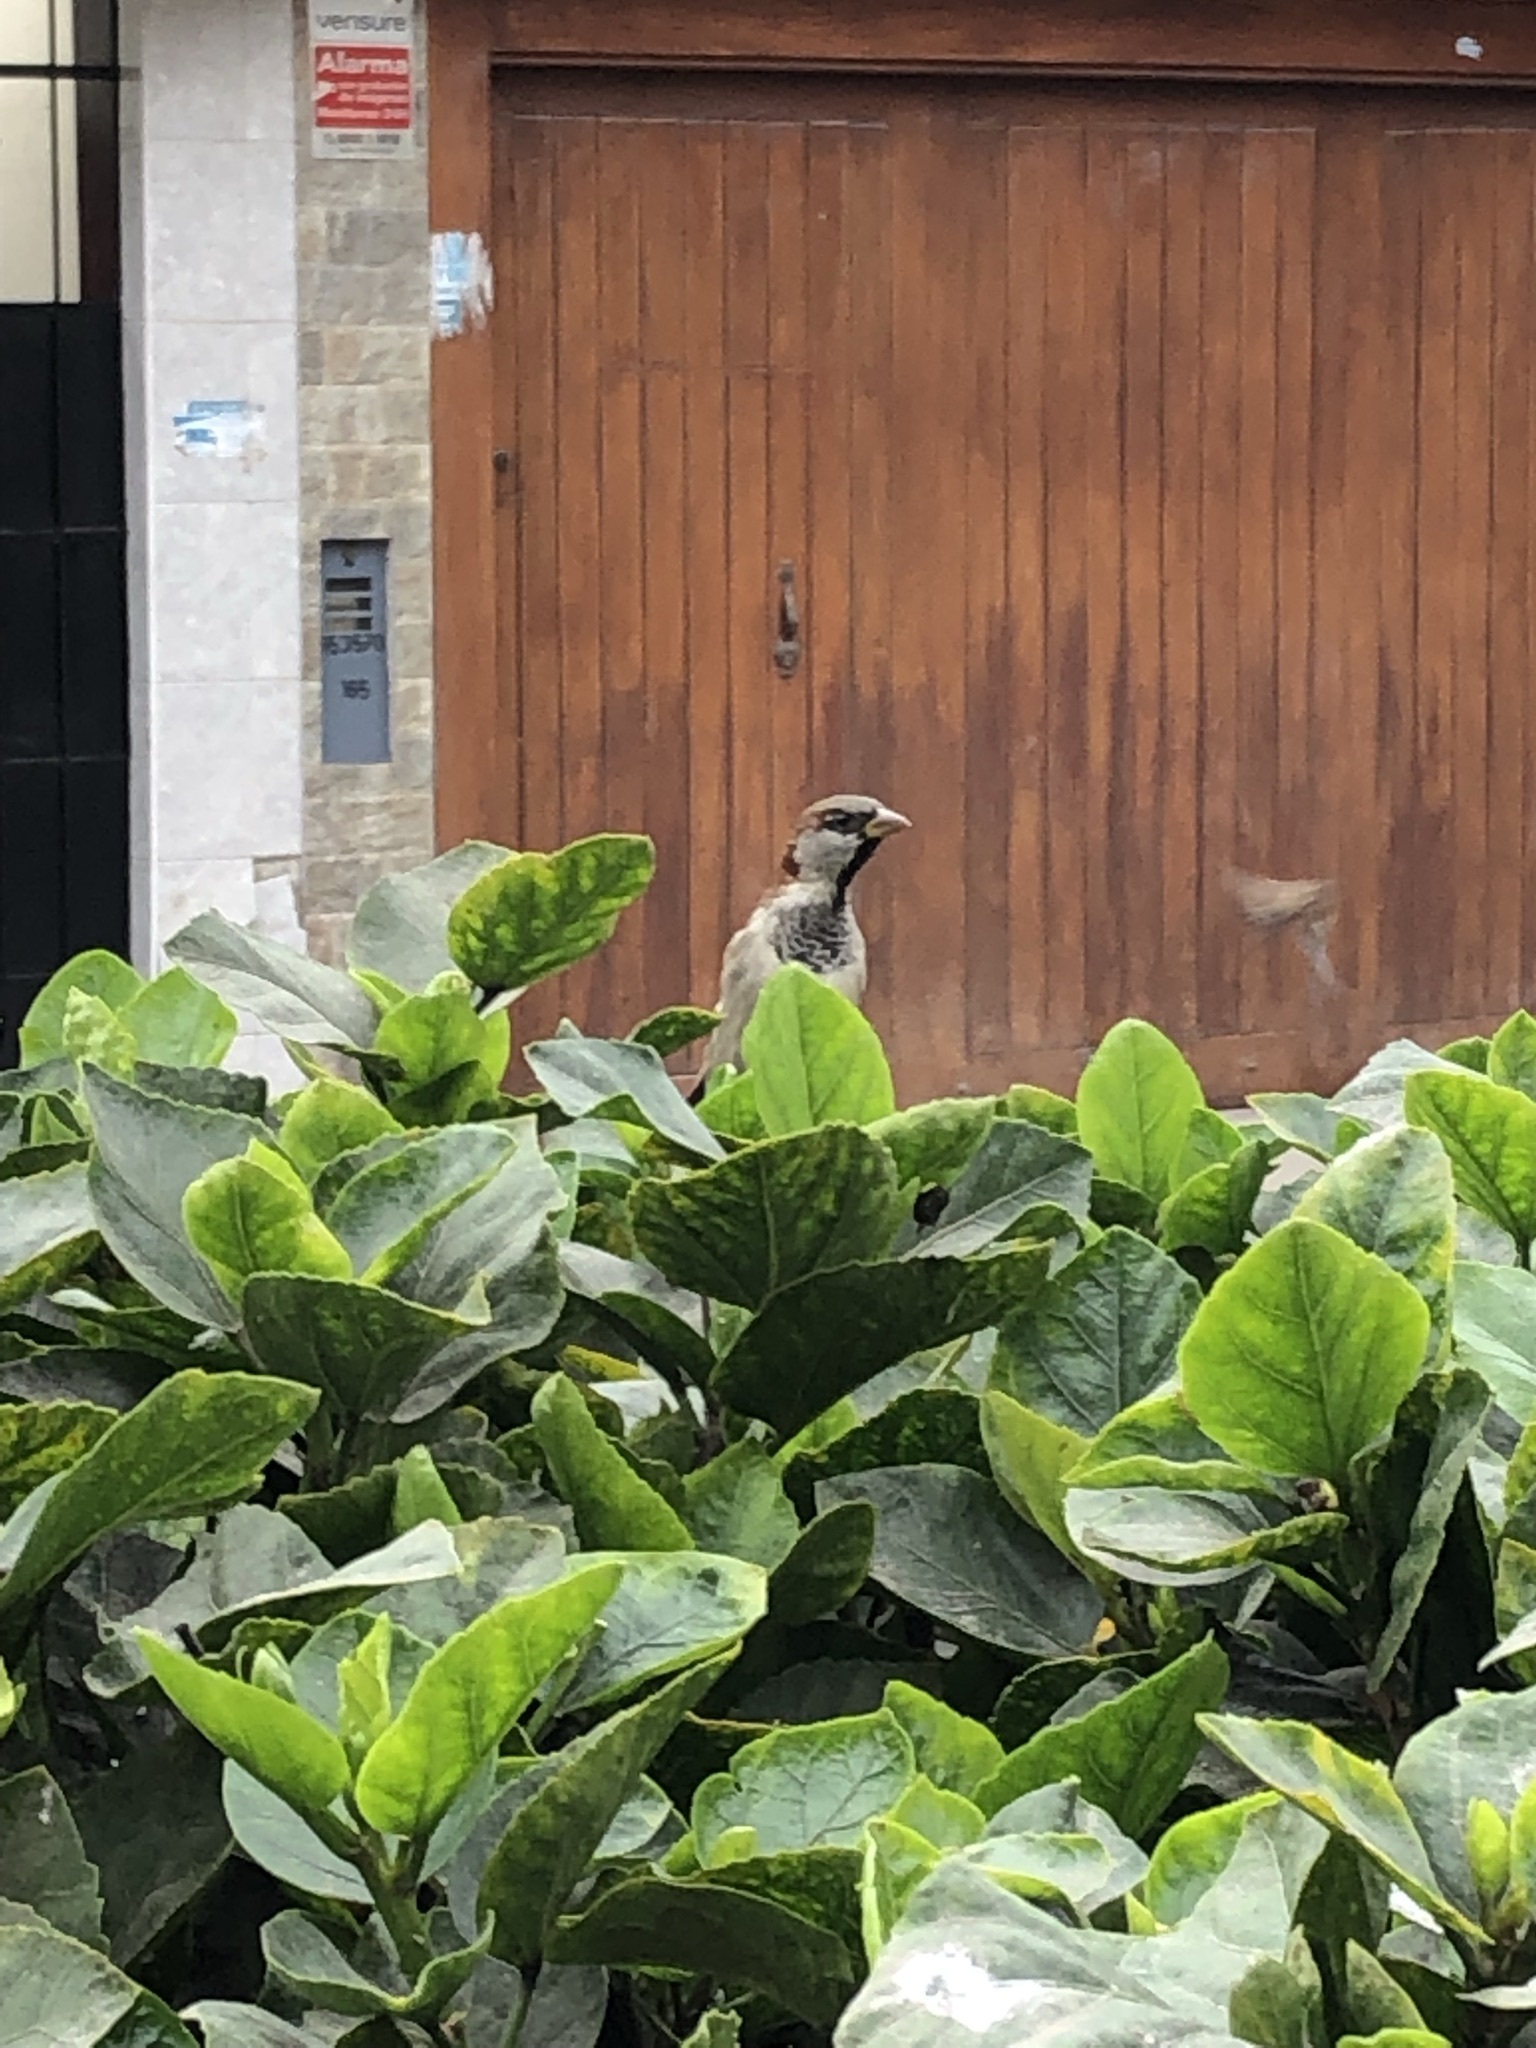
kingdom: Animalia
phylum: Chordata
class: Aves
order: Passeriformes
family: Passeridae
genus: Passer
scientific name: Passer domesticus
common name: House sparrow
